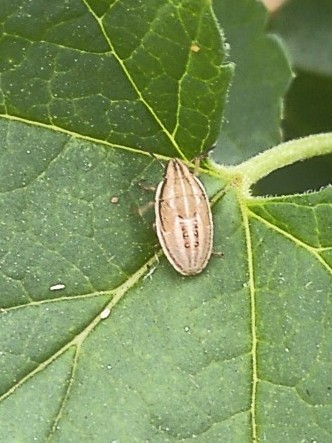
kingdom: Animalia
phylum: Arthropoda
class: Insecta
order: Hemiptera
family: Pentatomidae
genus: Aelia
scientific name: Aelia acuminata
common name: Bishop's mitre
